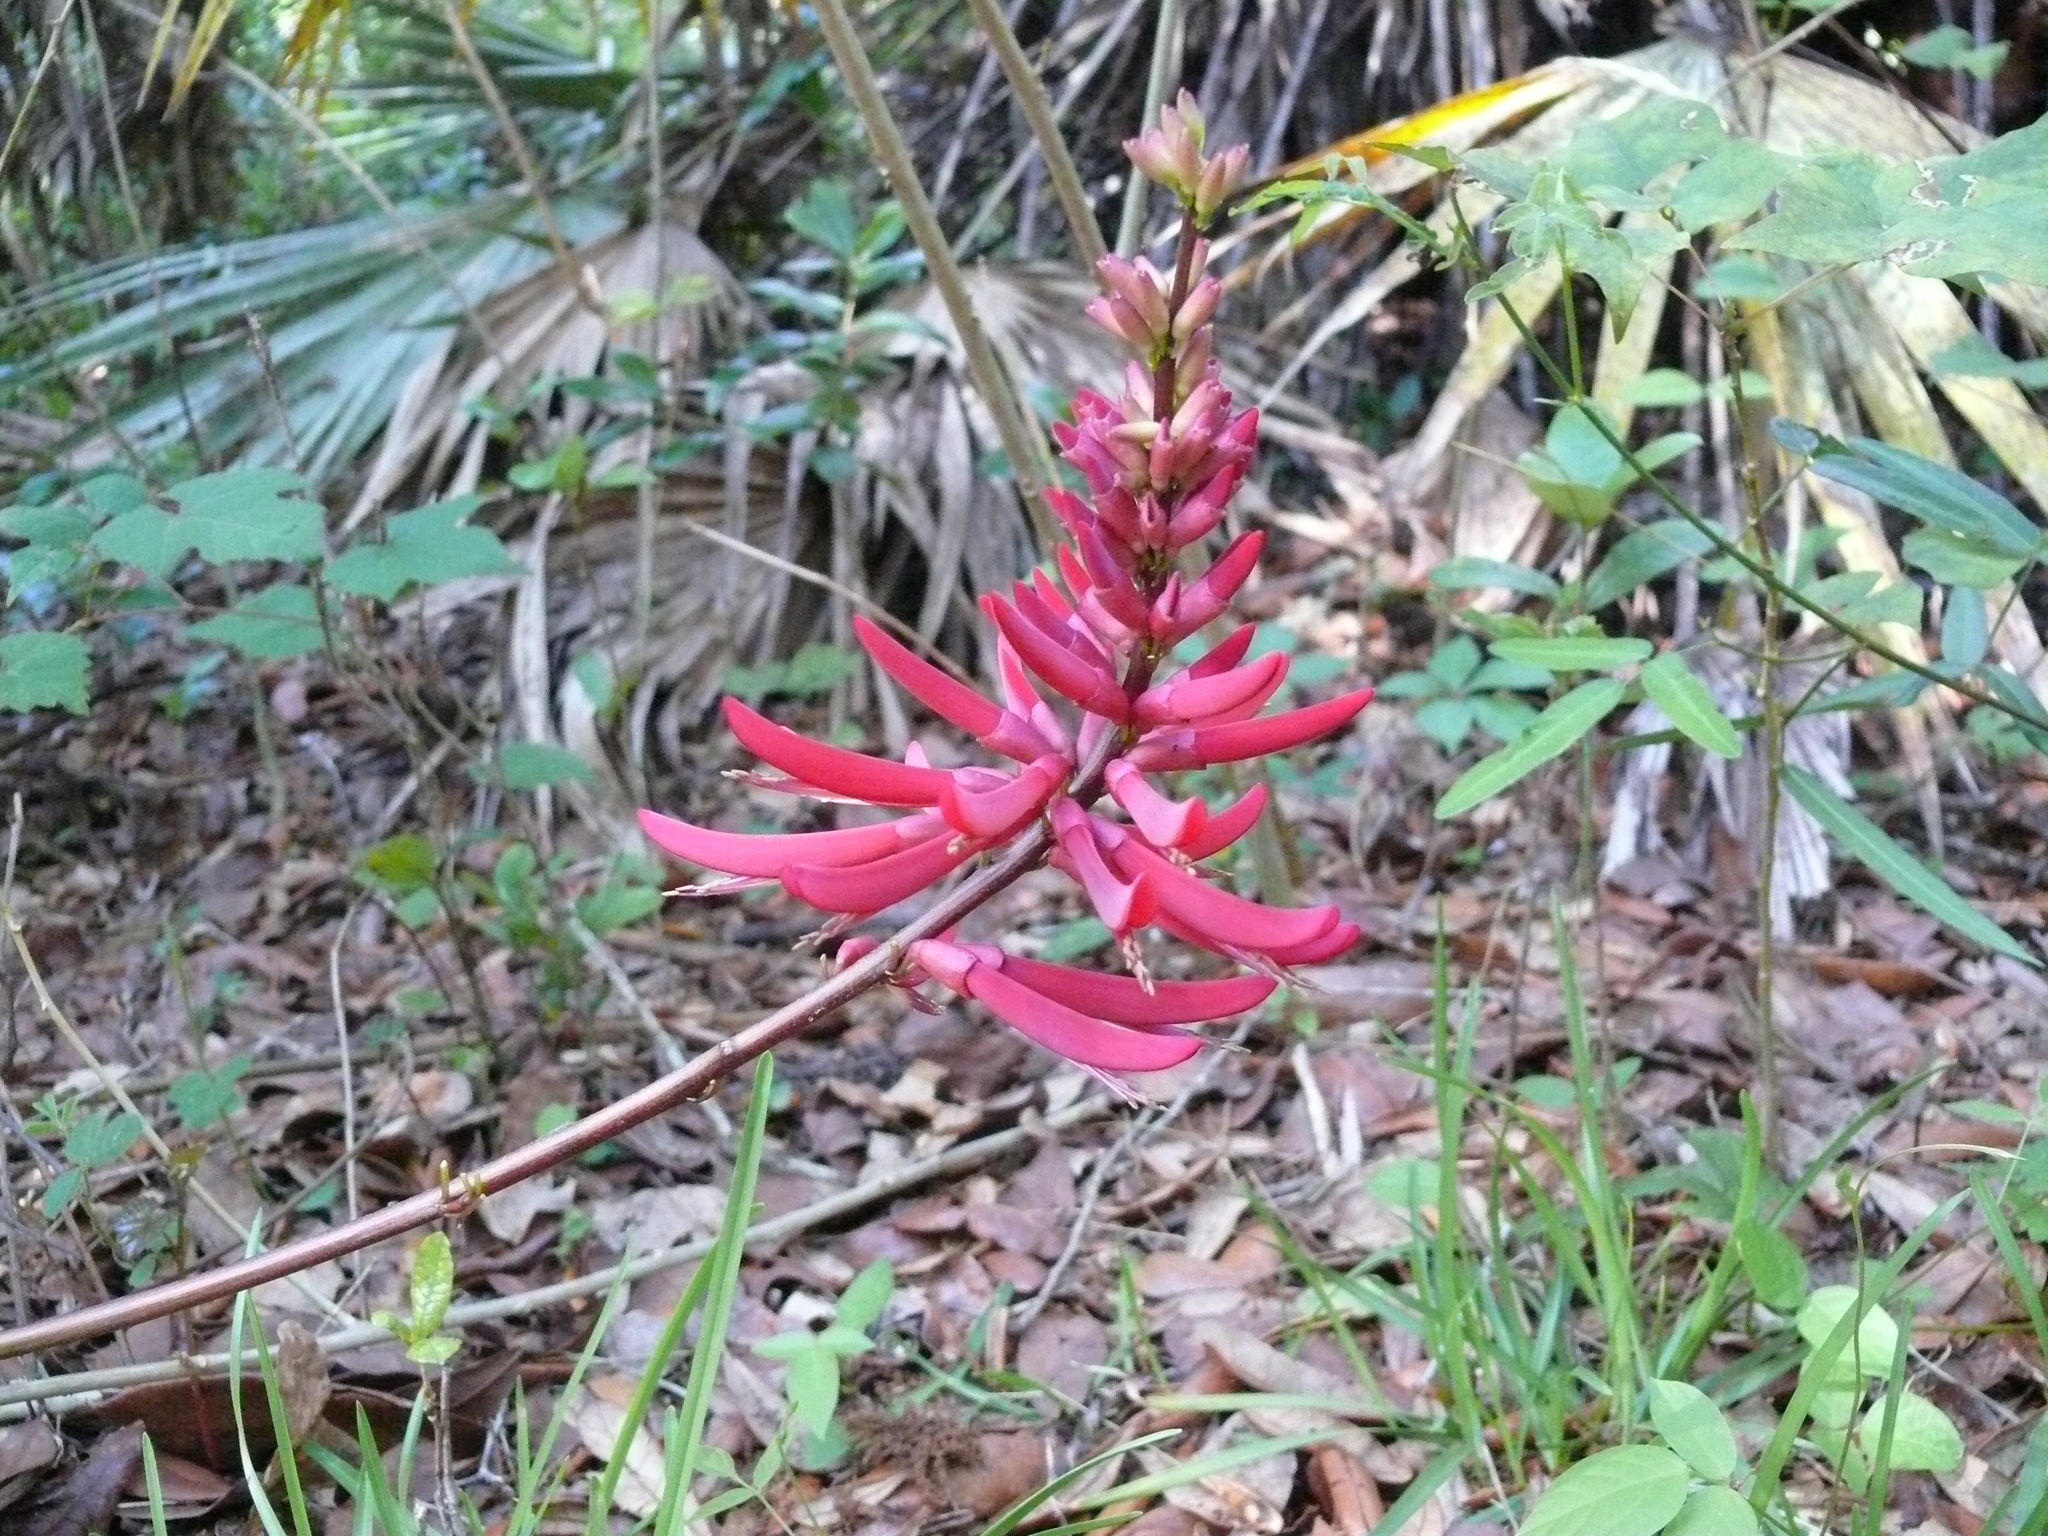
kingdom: Plantae
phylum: Tracheophyta
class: Magnoliopsida
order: Fabales
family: Fabaceae
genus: Erythrina
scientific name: Erythrina herbacea
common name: Coral-bean
